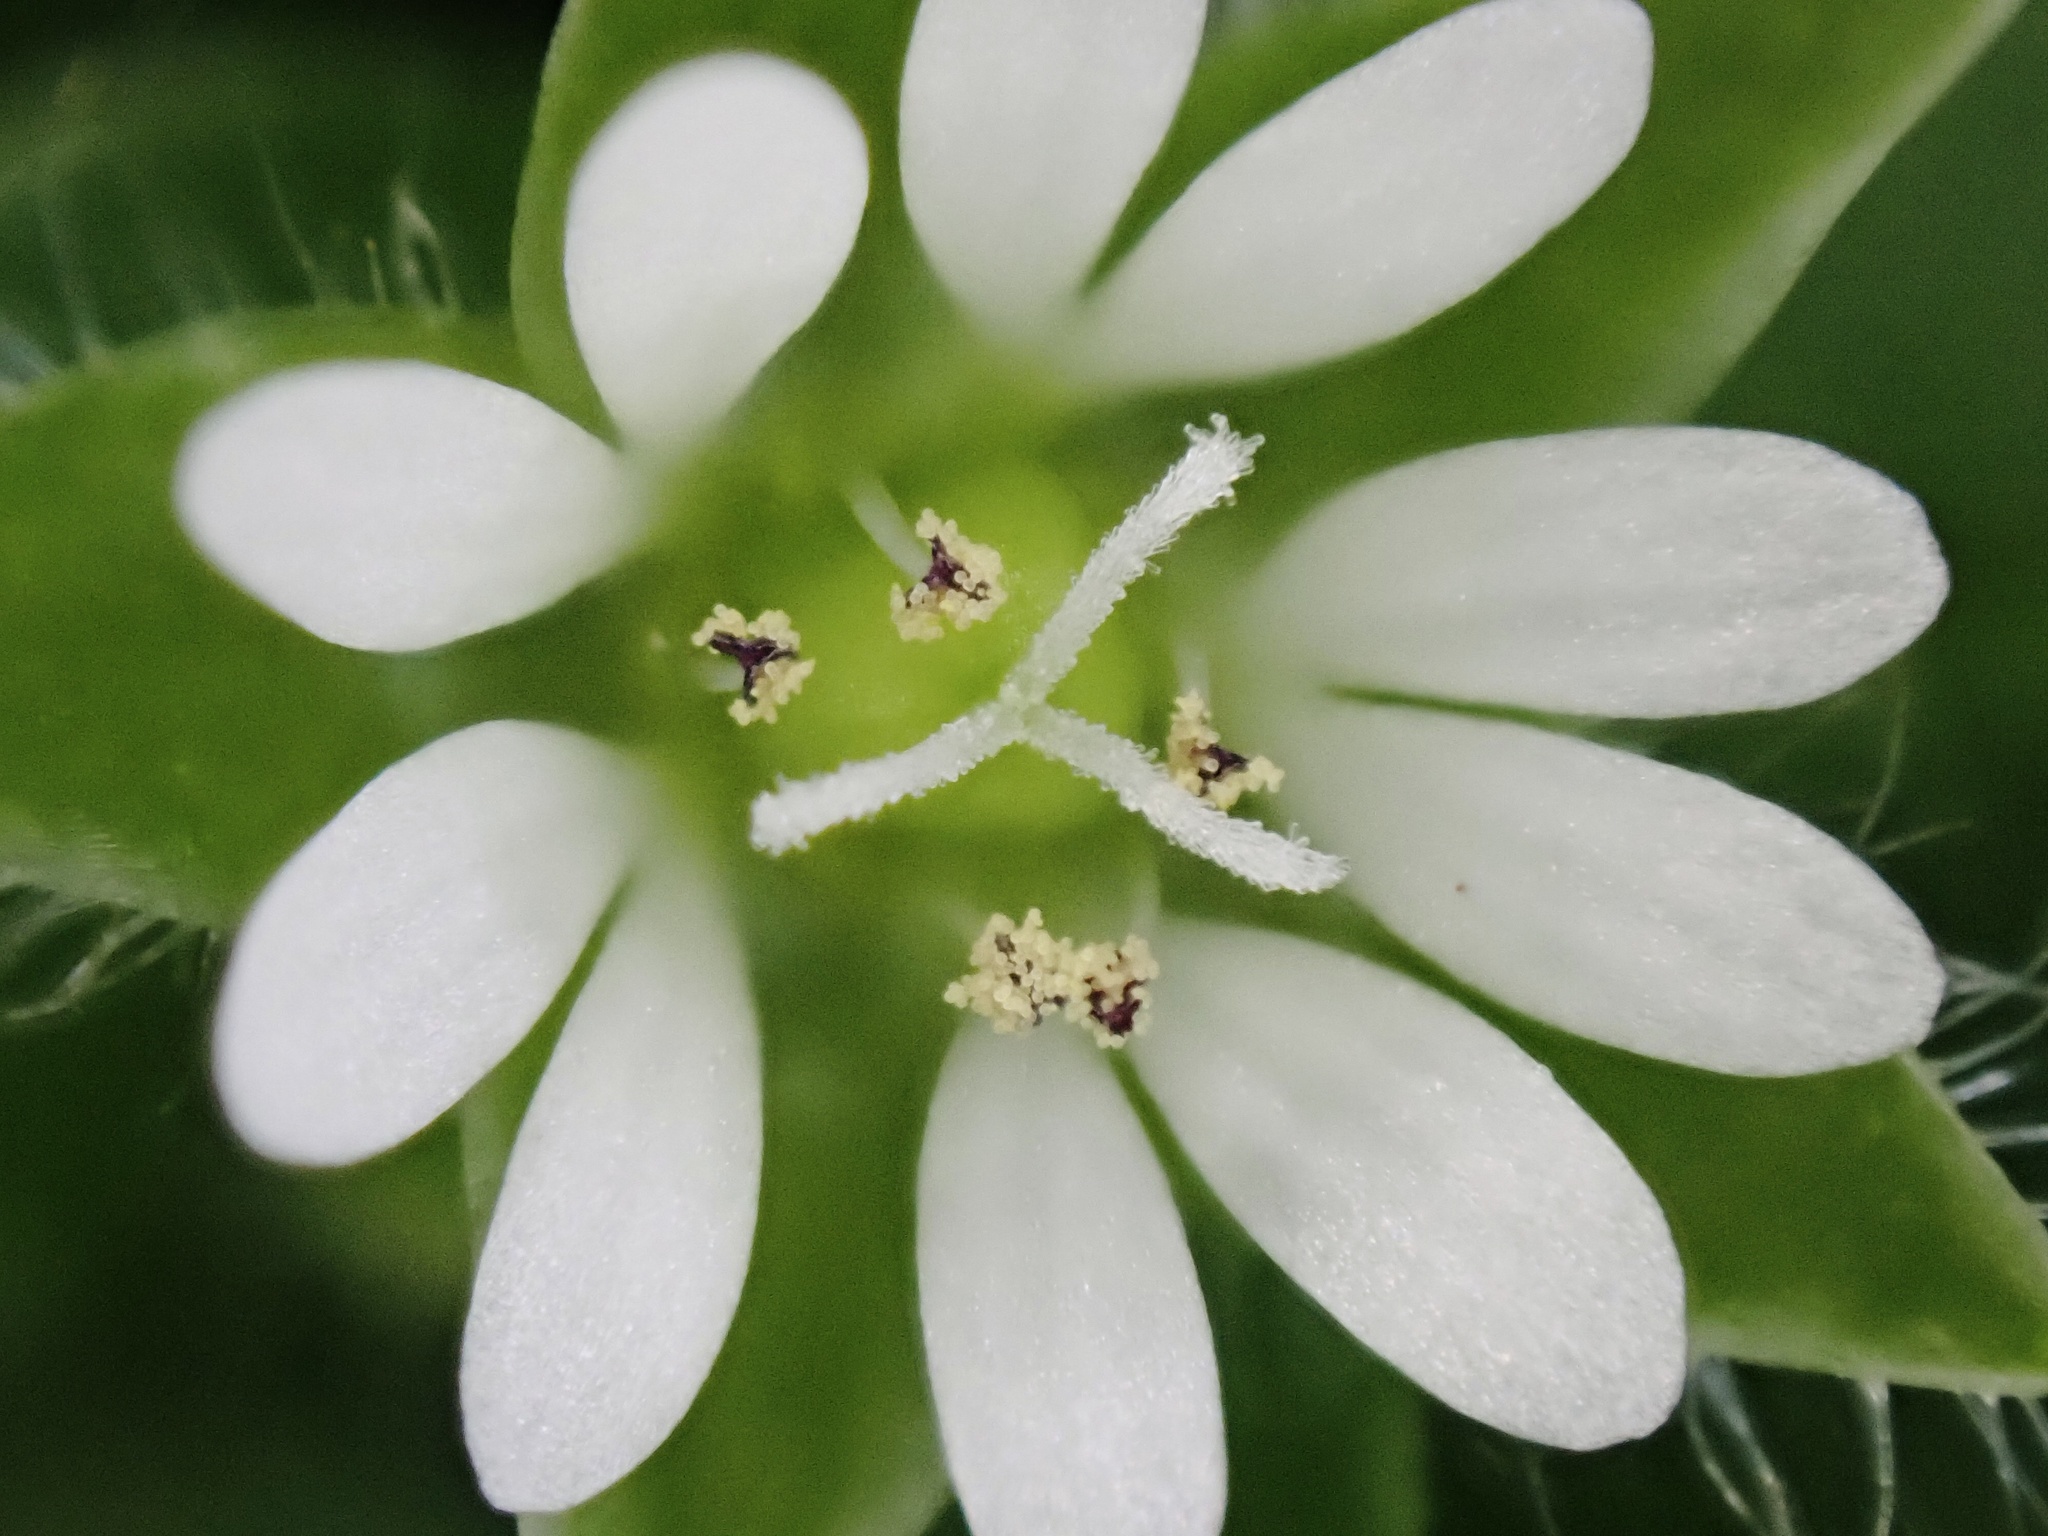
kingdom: Plantae
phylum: Tracheophyta
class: Magnoliopsida
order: Caryophyllales
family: Caryophyllaceae
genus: Stellaria
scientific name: Stellaria media
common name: Common chickweed
